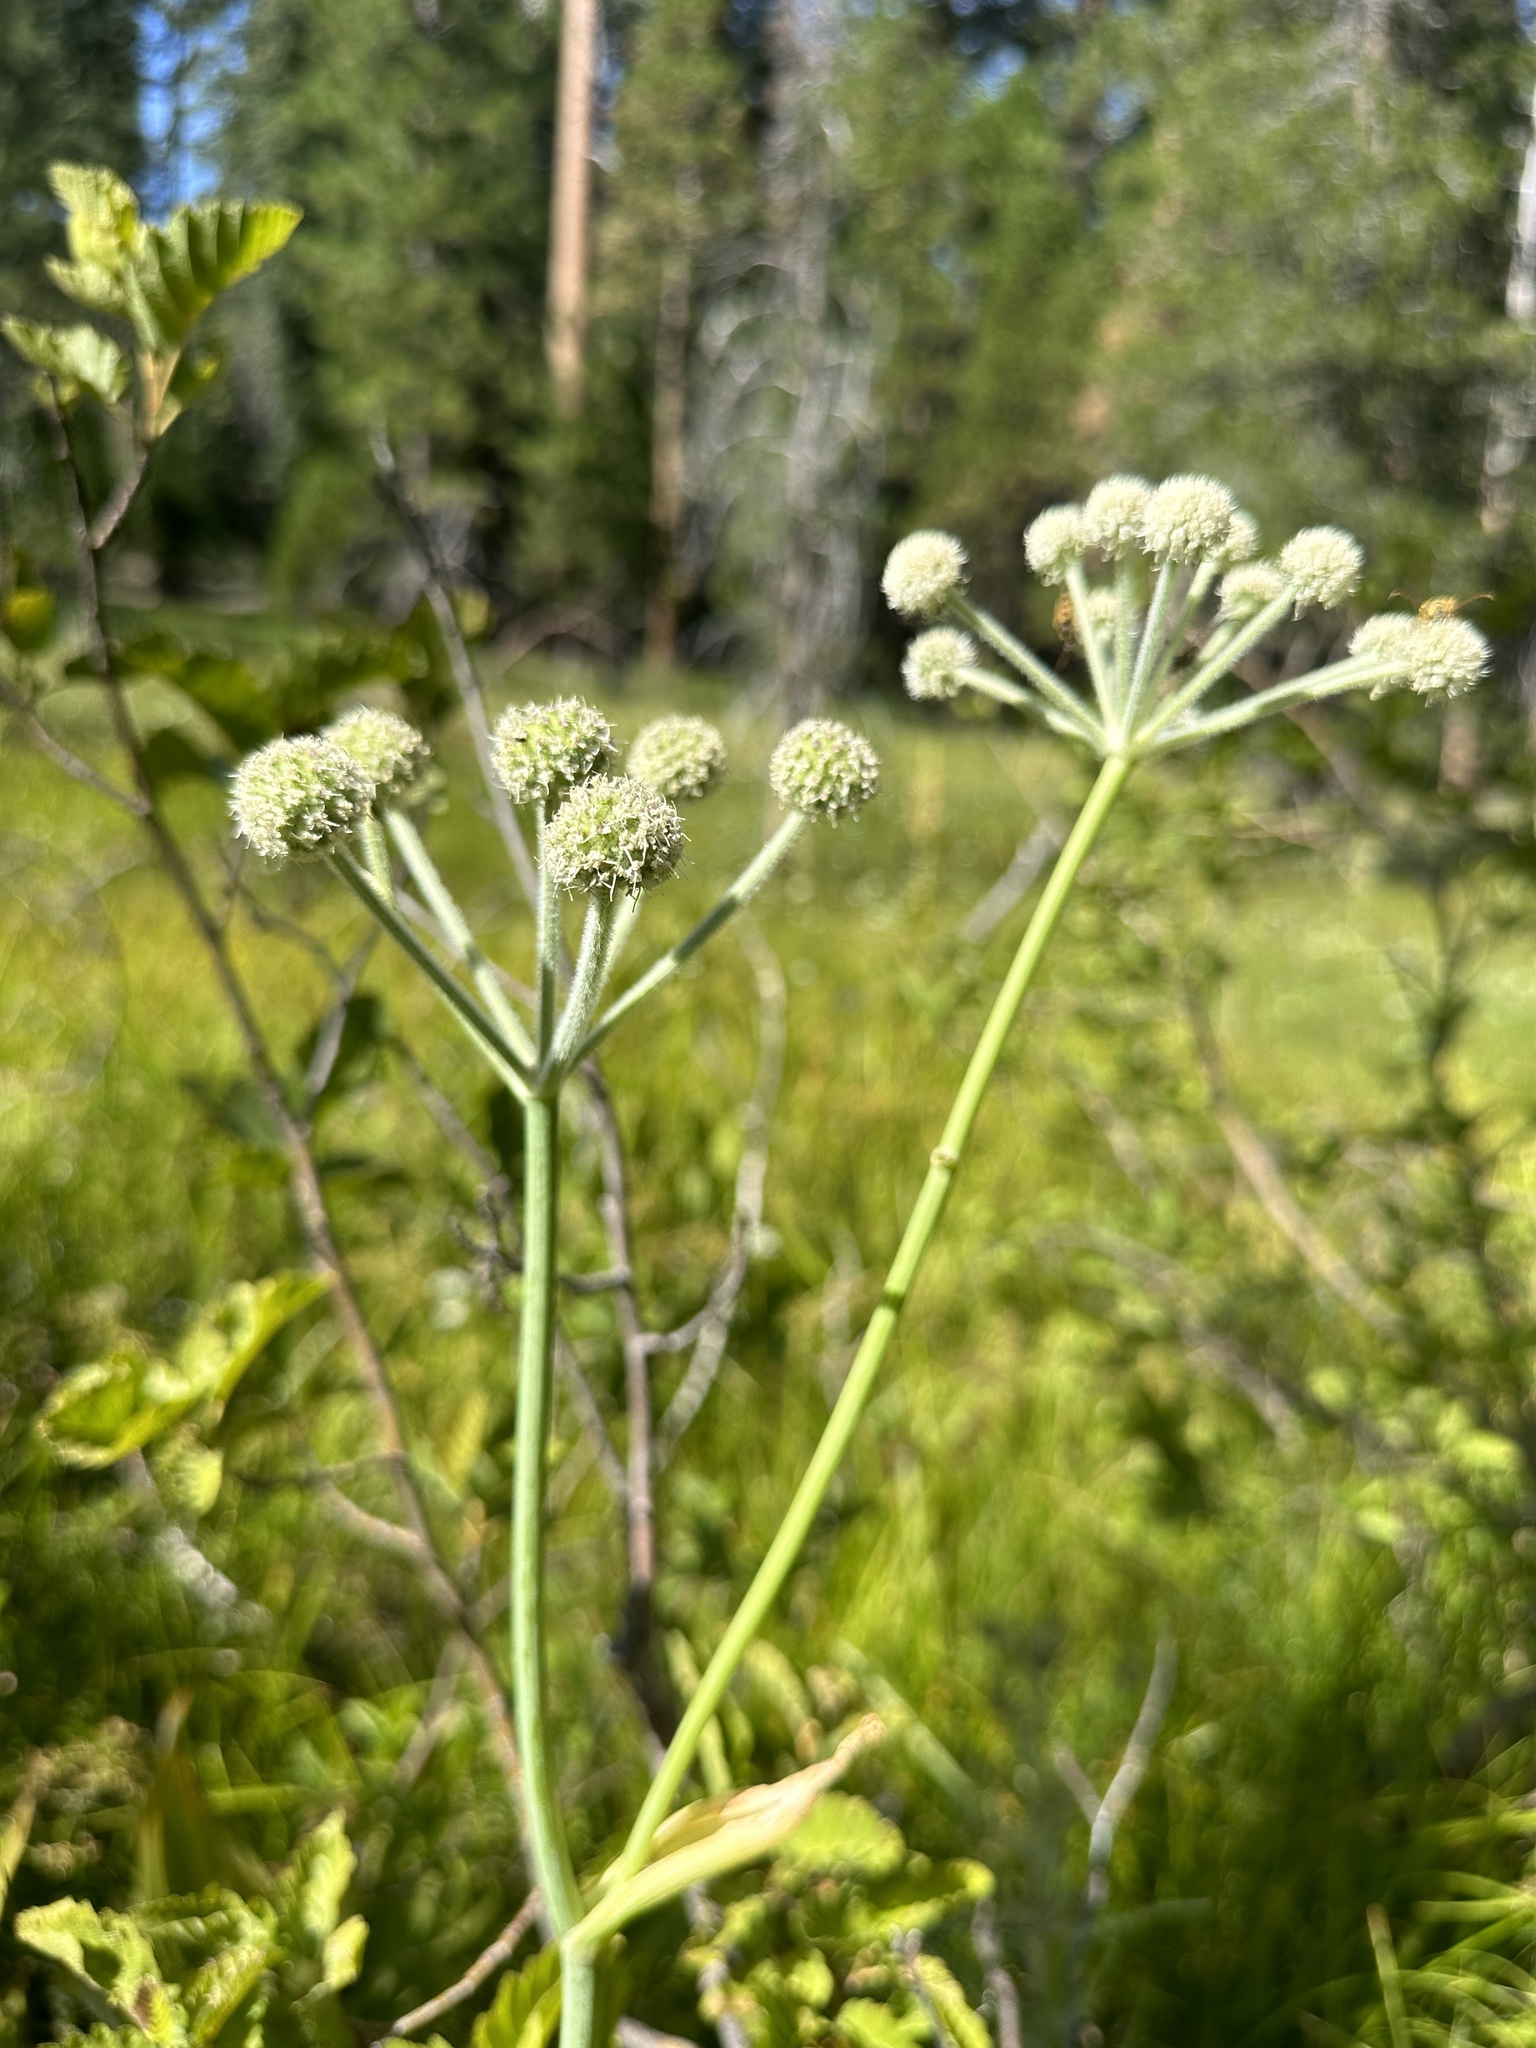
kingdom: Plantae
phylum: Tracheophyta
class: Magnoliopsida
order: Apiales
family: Apiaceae
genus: Angelica
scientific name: Angelica capitellata
